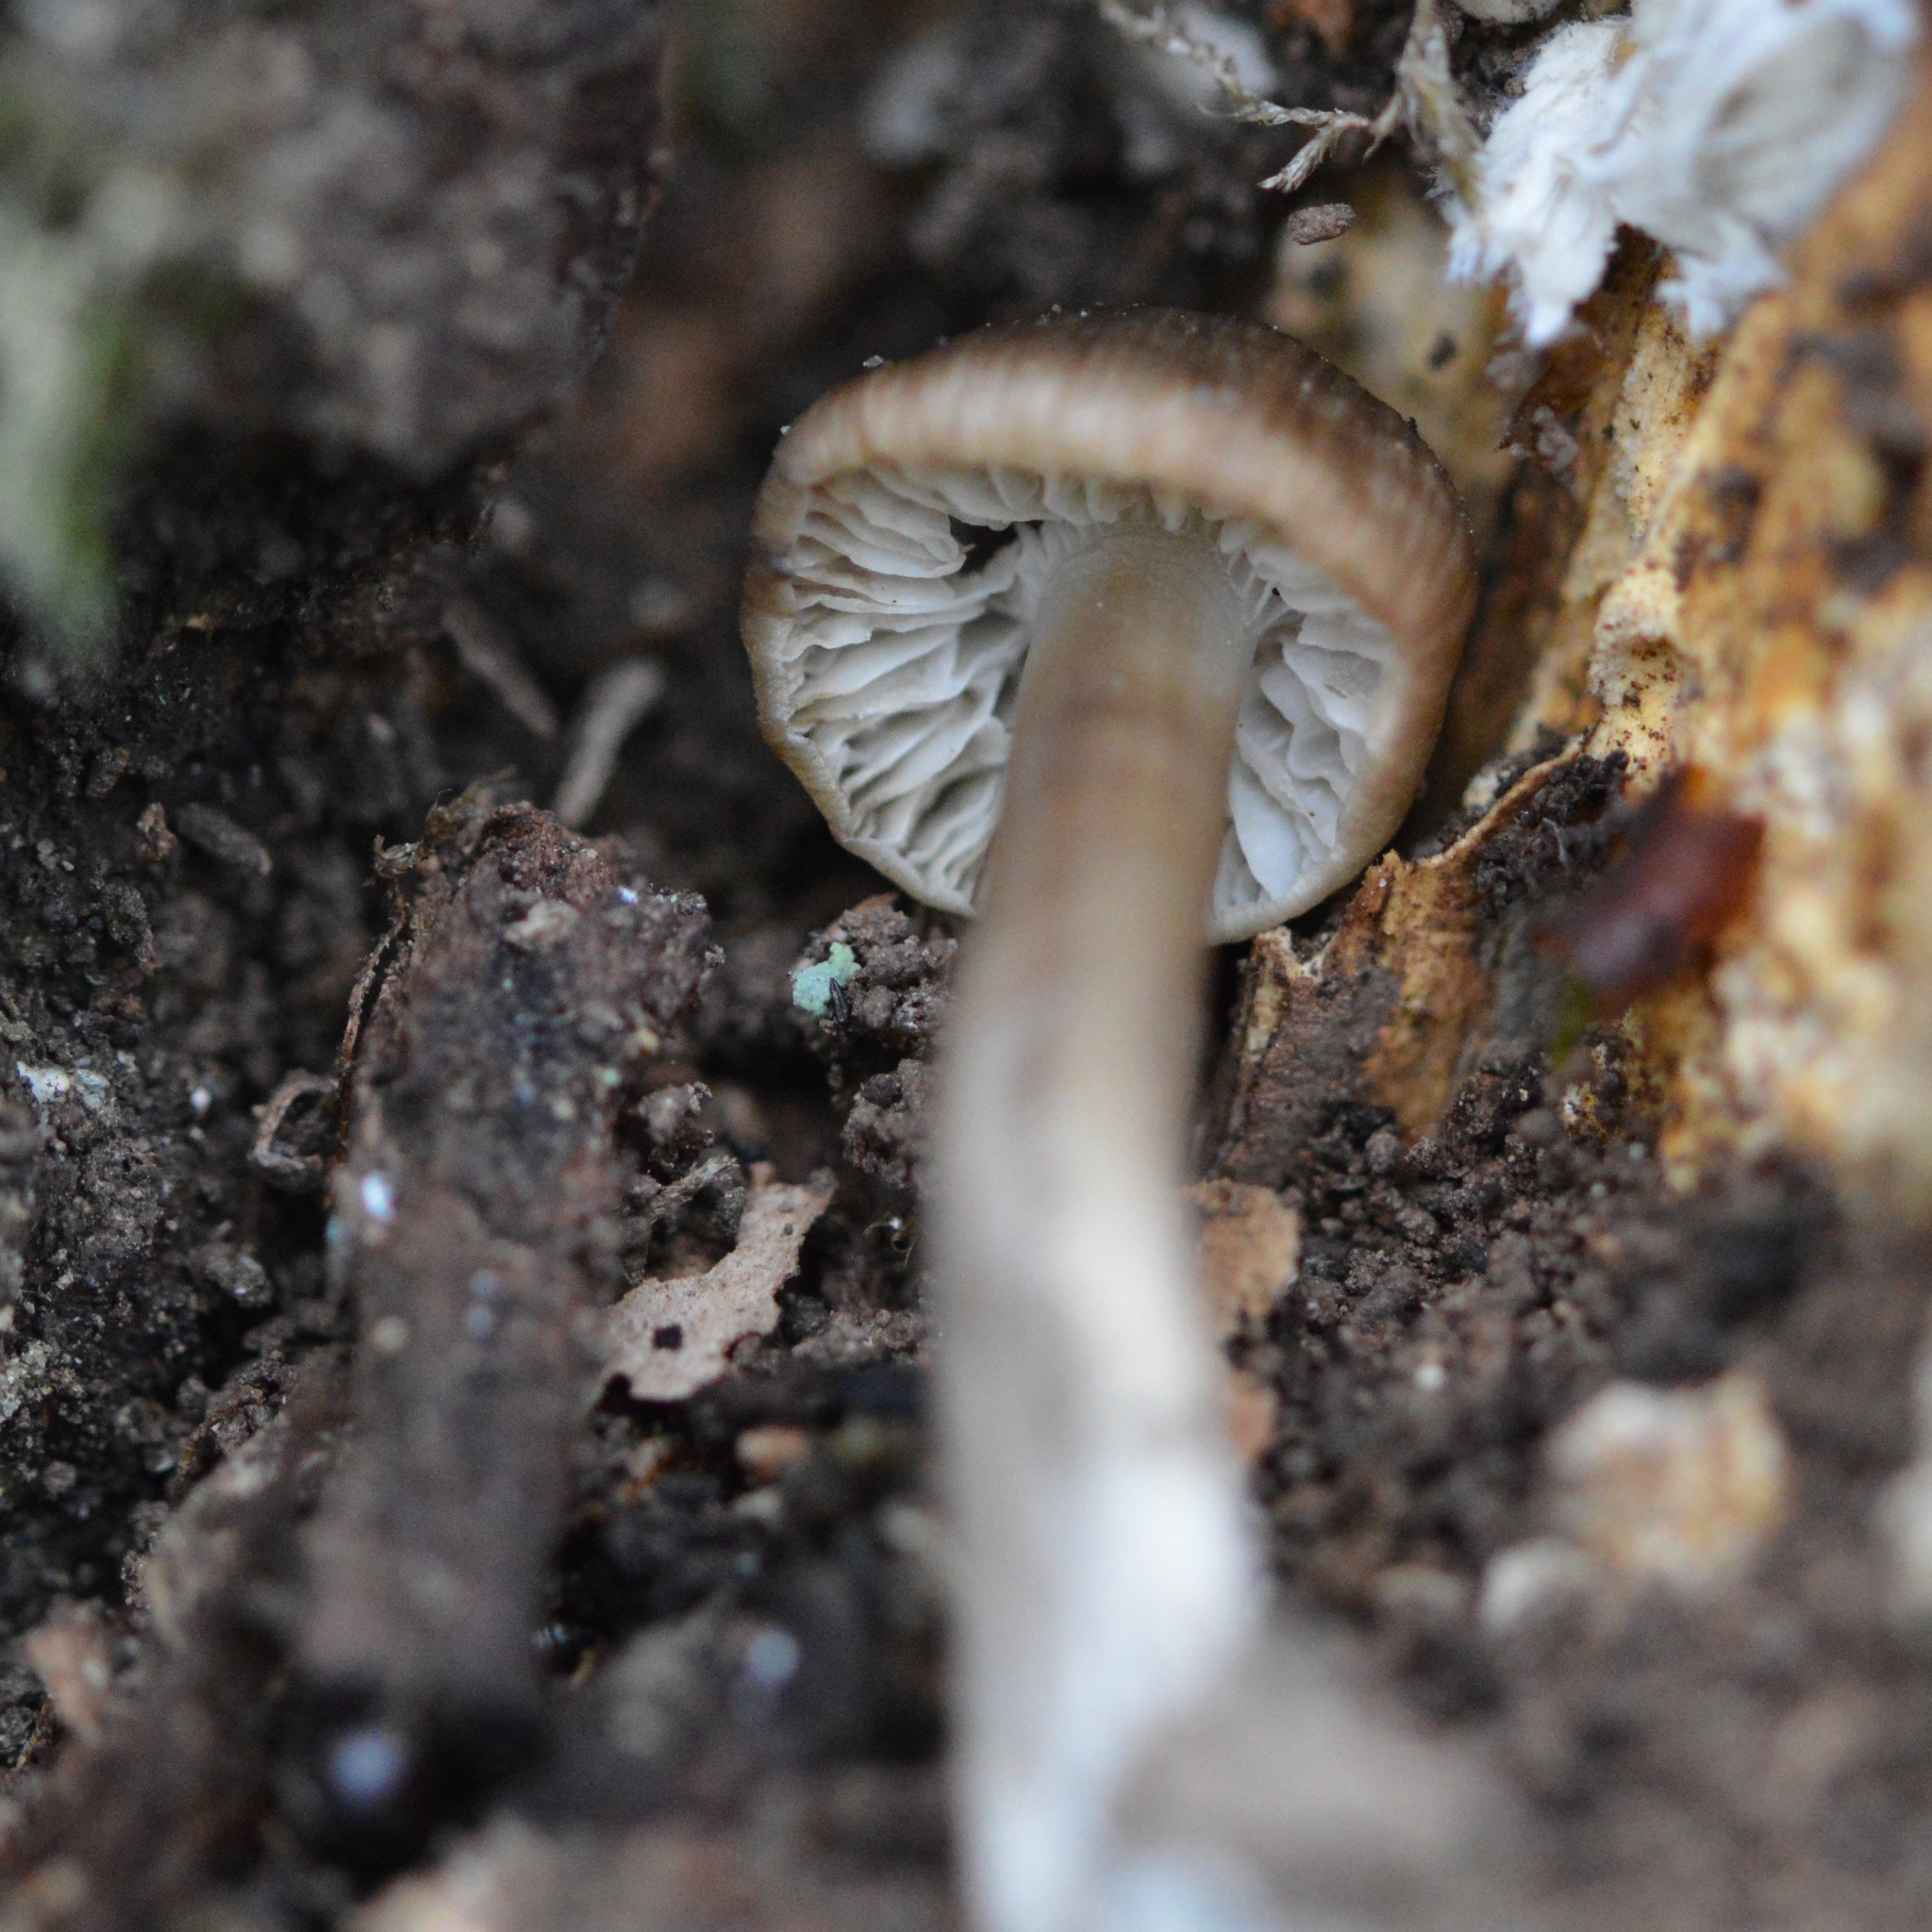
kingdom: Fungi
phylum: Basidiomycota
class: Agaricomycetes
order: Agaricales
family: Mycenaceae
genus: Mycena
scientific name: Mycena tintinnabulum
